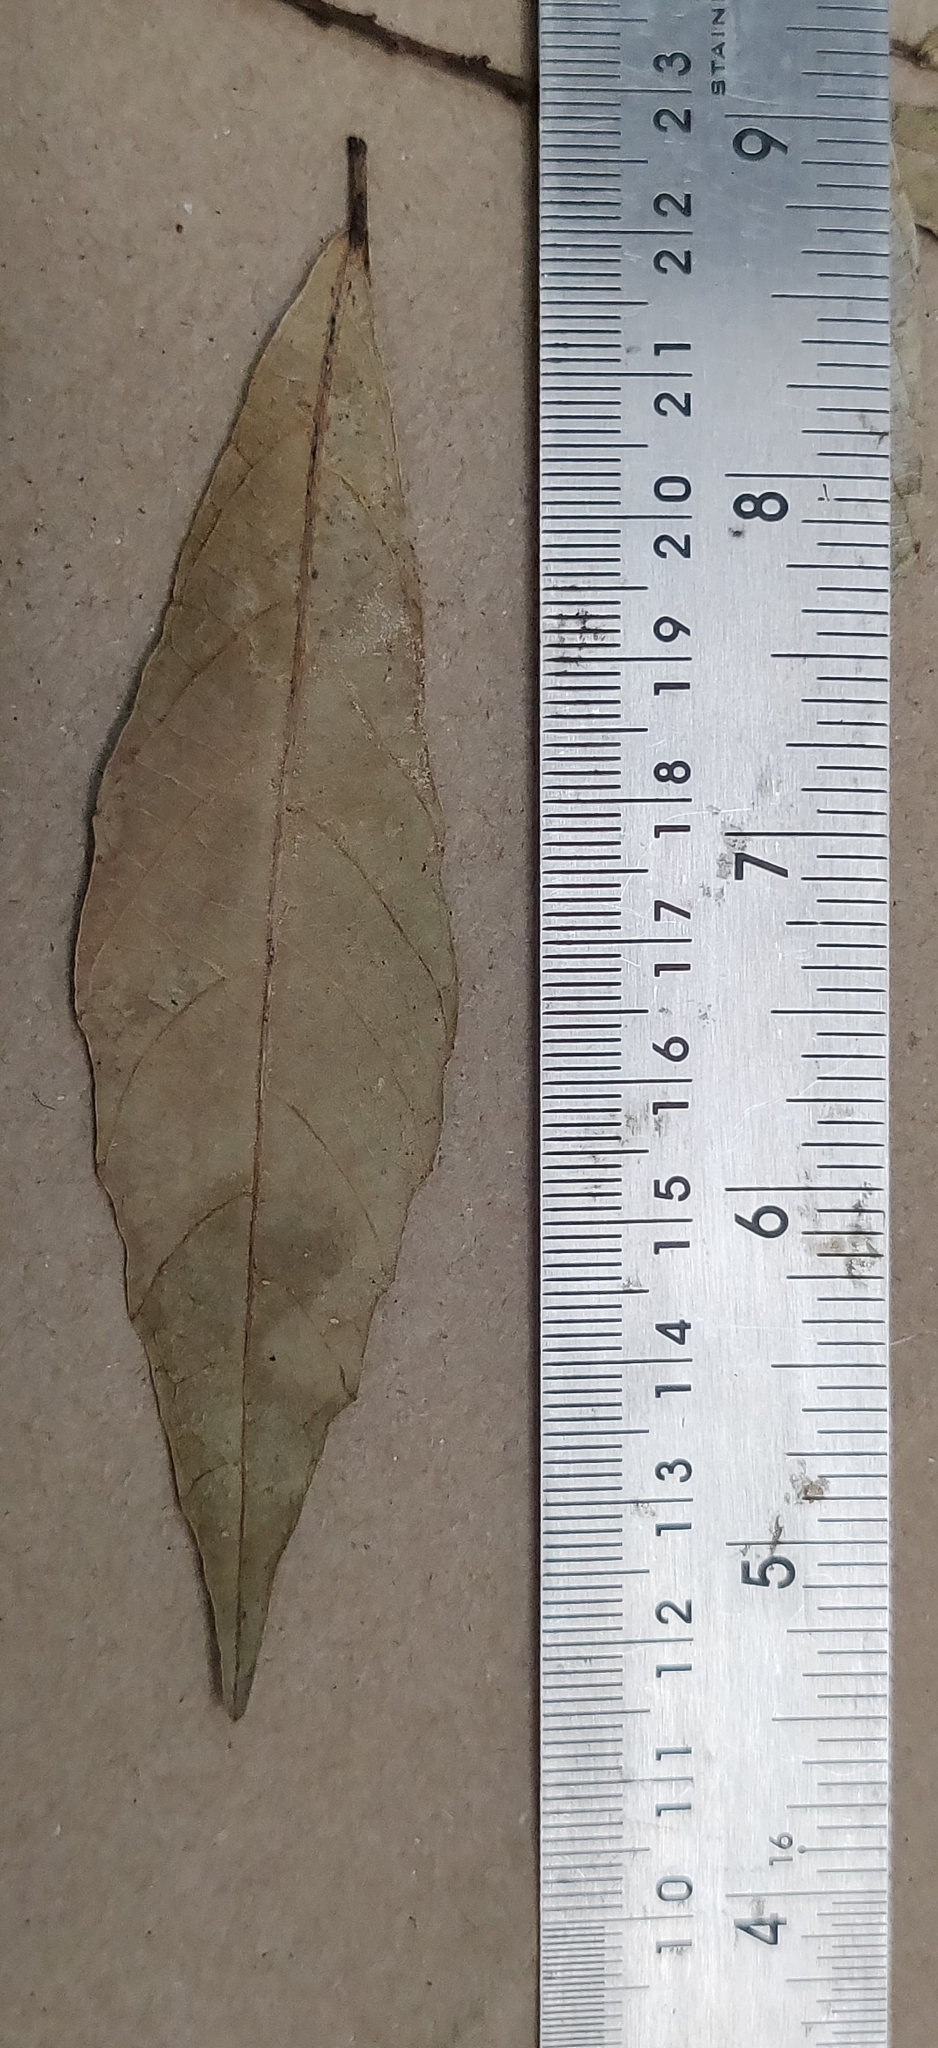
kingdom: Plantae
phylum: Tracheophyta
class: Magnoliopsida
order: Malpighiales
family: Euphorbiaceae
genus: Mallotus
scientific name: Mallotus resinosus
